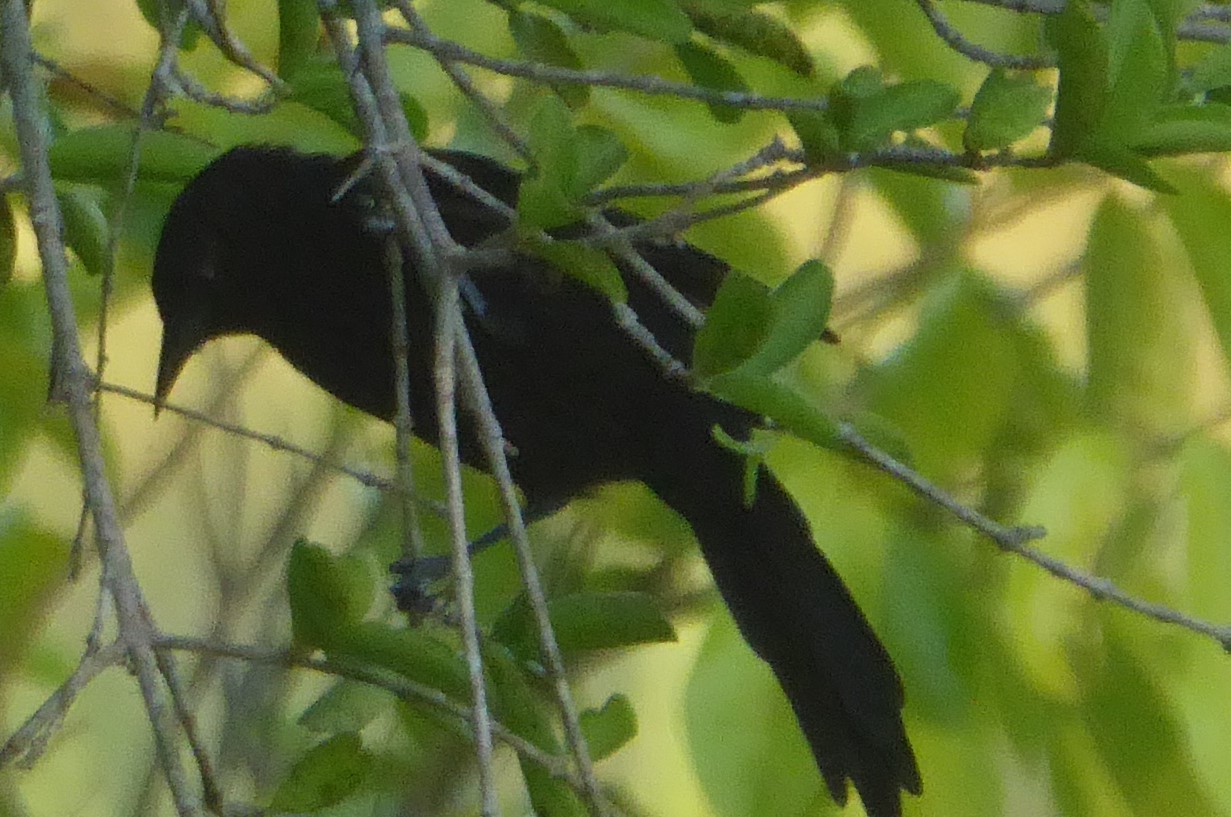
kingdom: Animalia
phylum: Chordata
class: Aves
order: Passeriformes
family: Icteridae
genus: Gnorimopsar
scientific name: Gnorimopsar chopi
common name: Chopi blackbird
